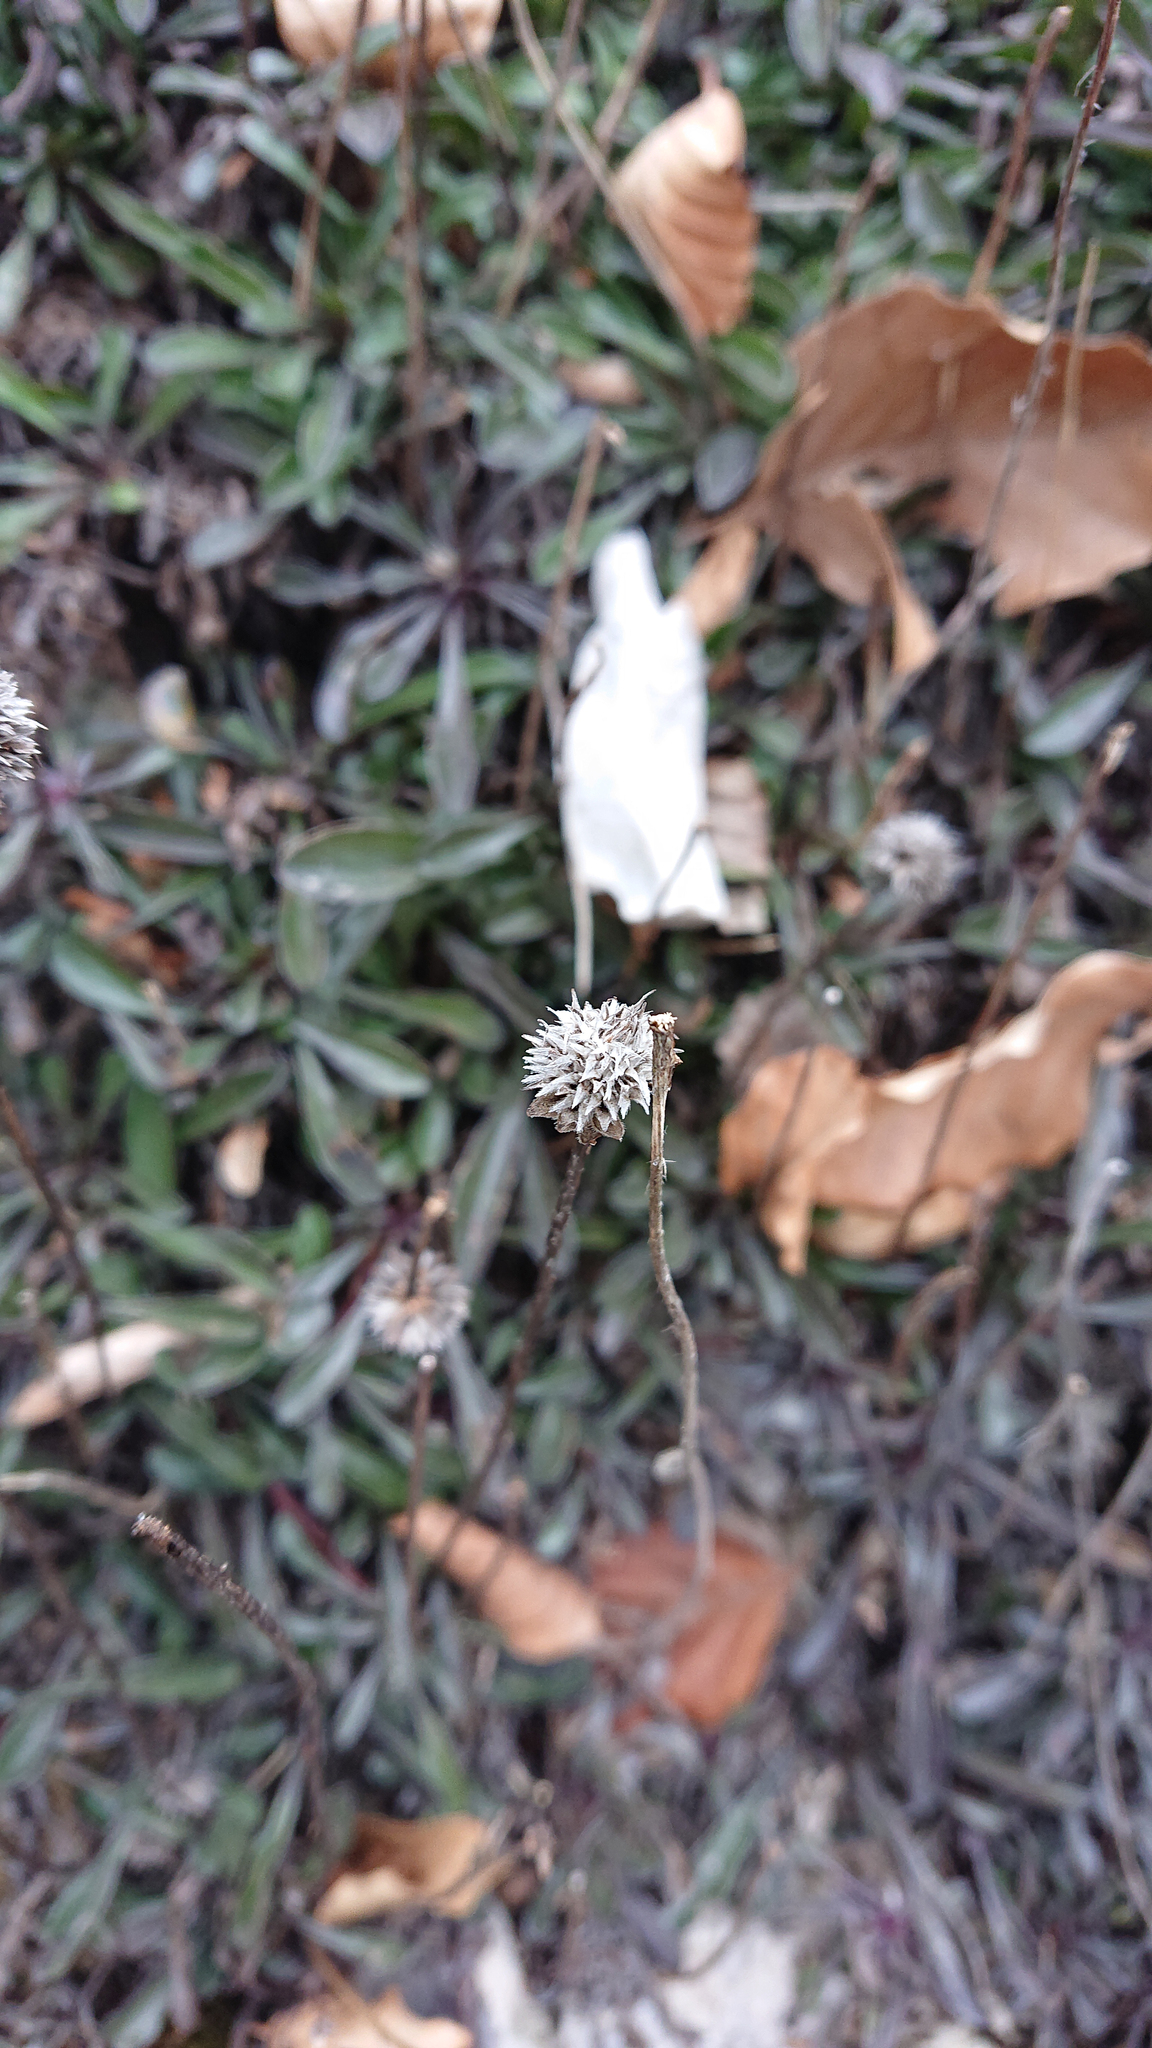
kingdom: Plantae
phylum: Tracheophyta
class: Magnoliopsida
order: Lamiales
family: Plantaginaceae
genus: Globularia
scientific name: Globularia meridionalis
